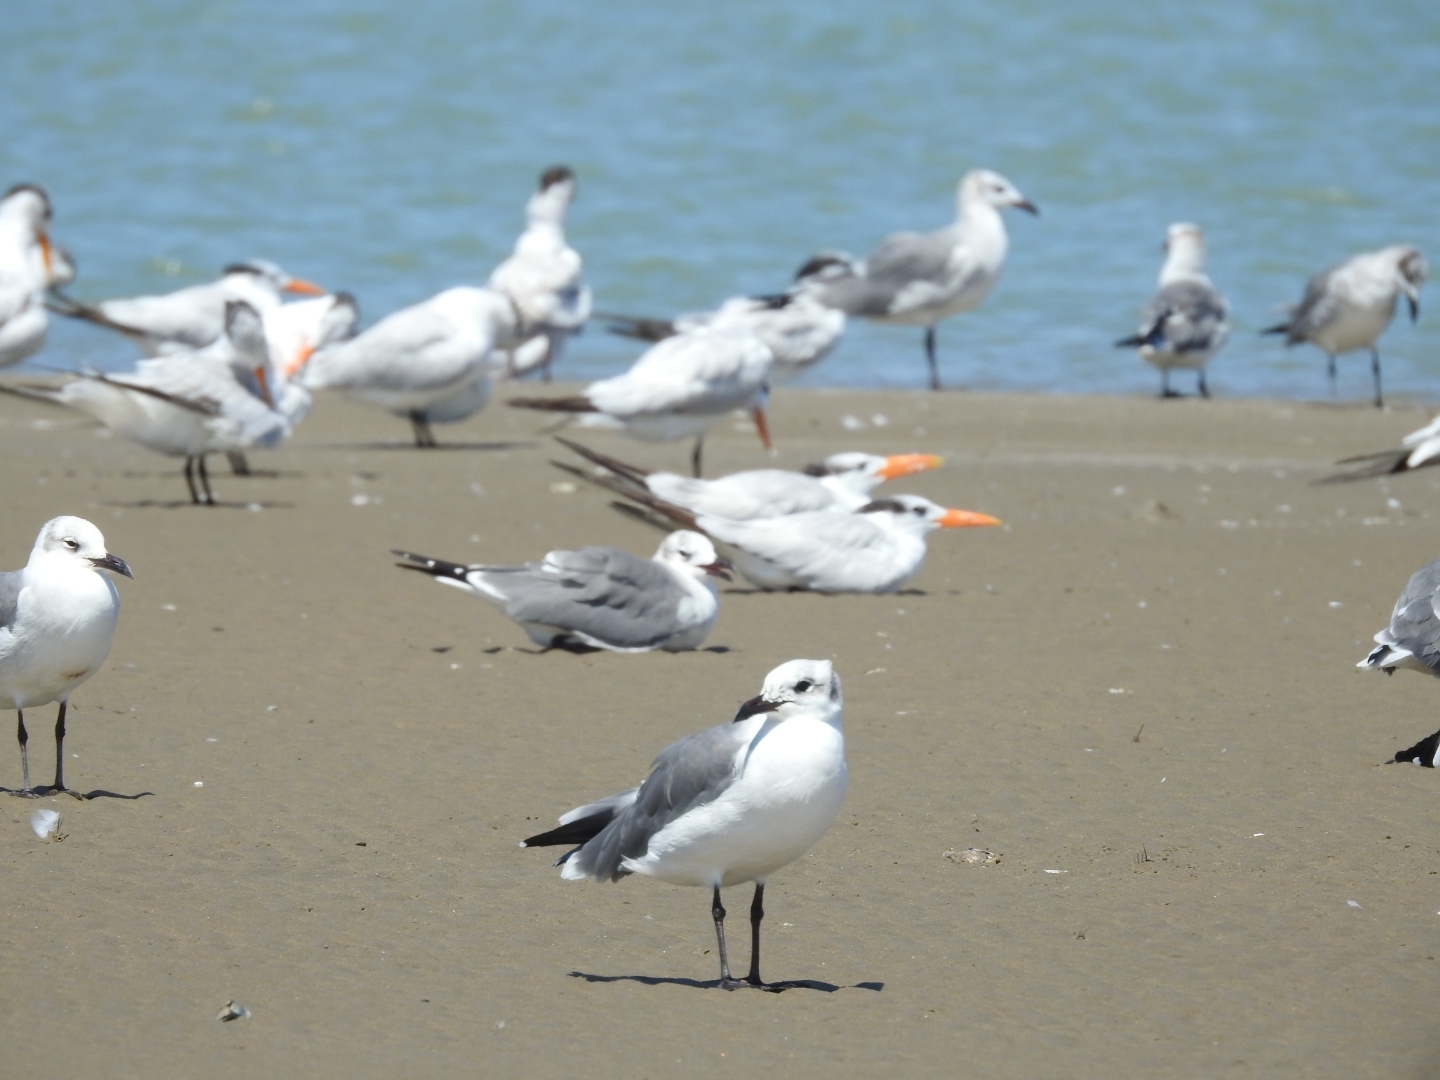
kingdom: Animalia
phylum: Chordata
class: Aves
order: Charadriiformes
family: Laridae
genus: Leucophaeus
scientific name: Leucophaeus atricilla
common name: Laughing gull
